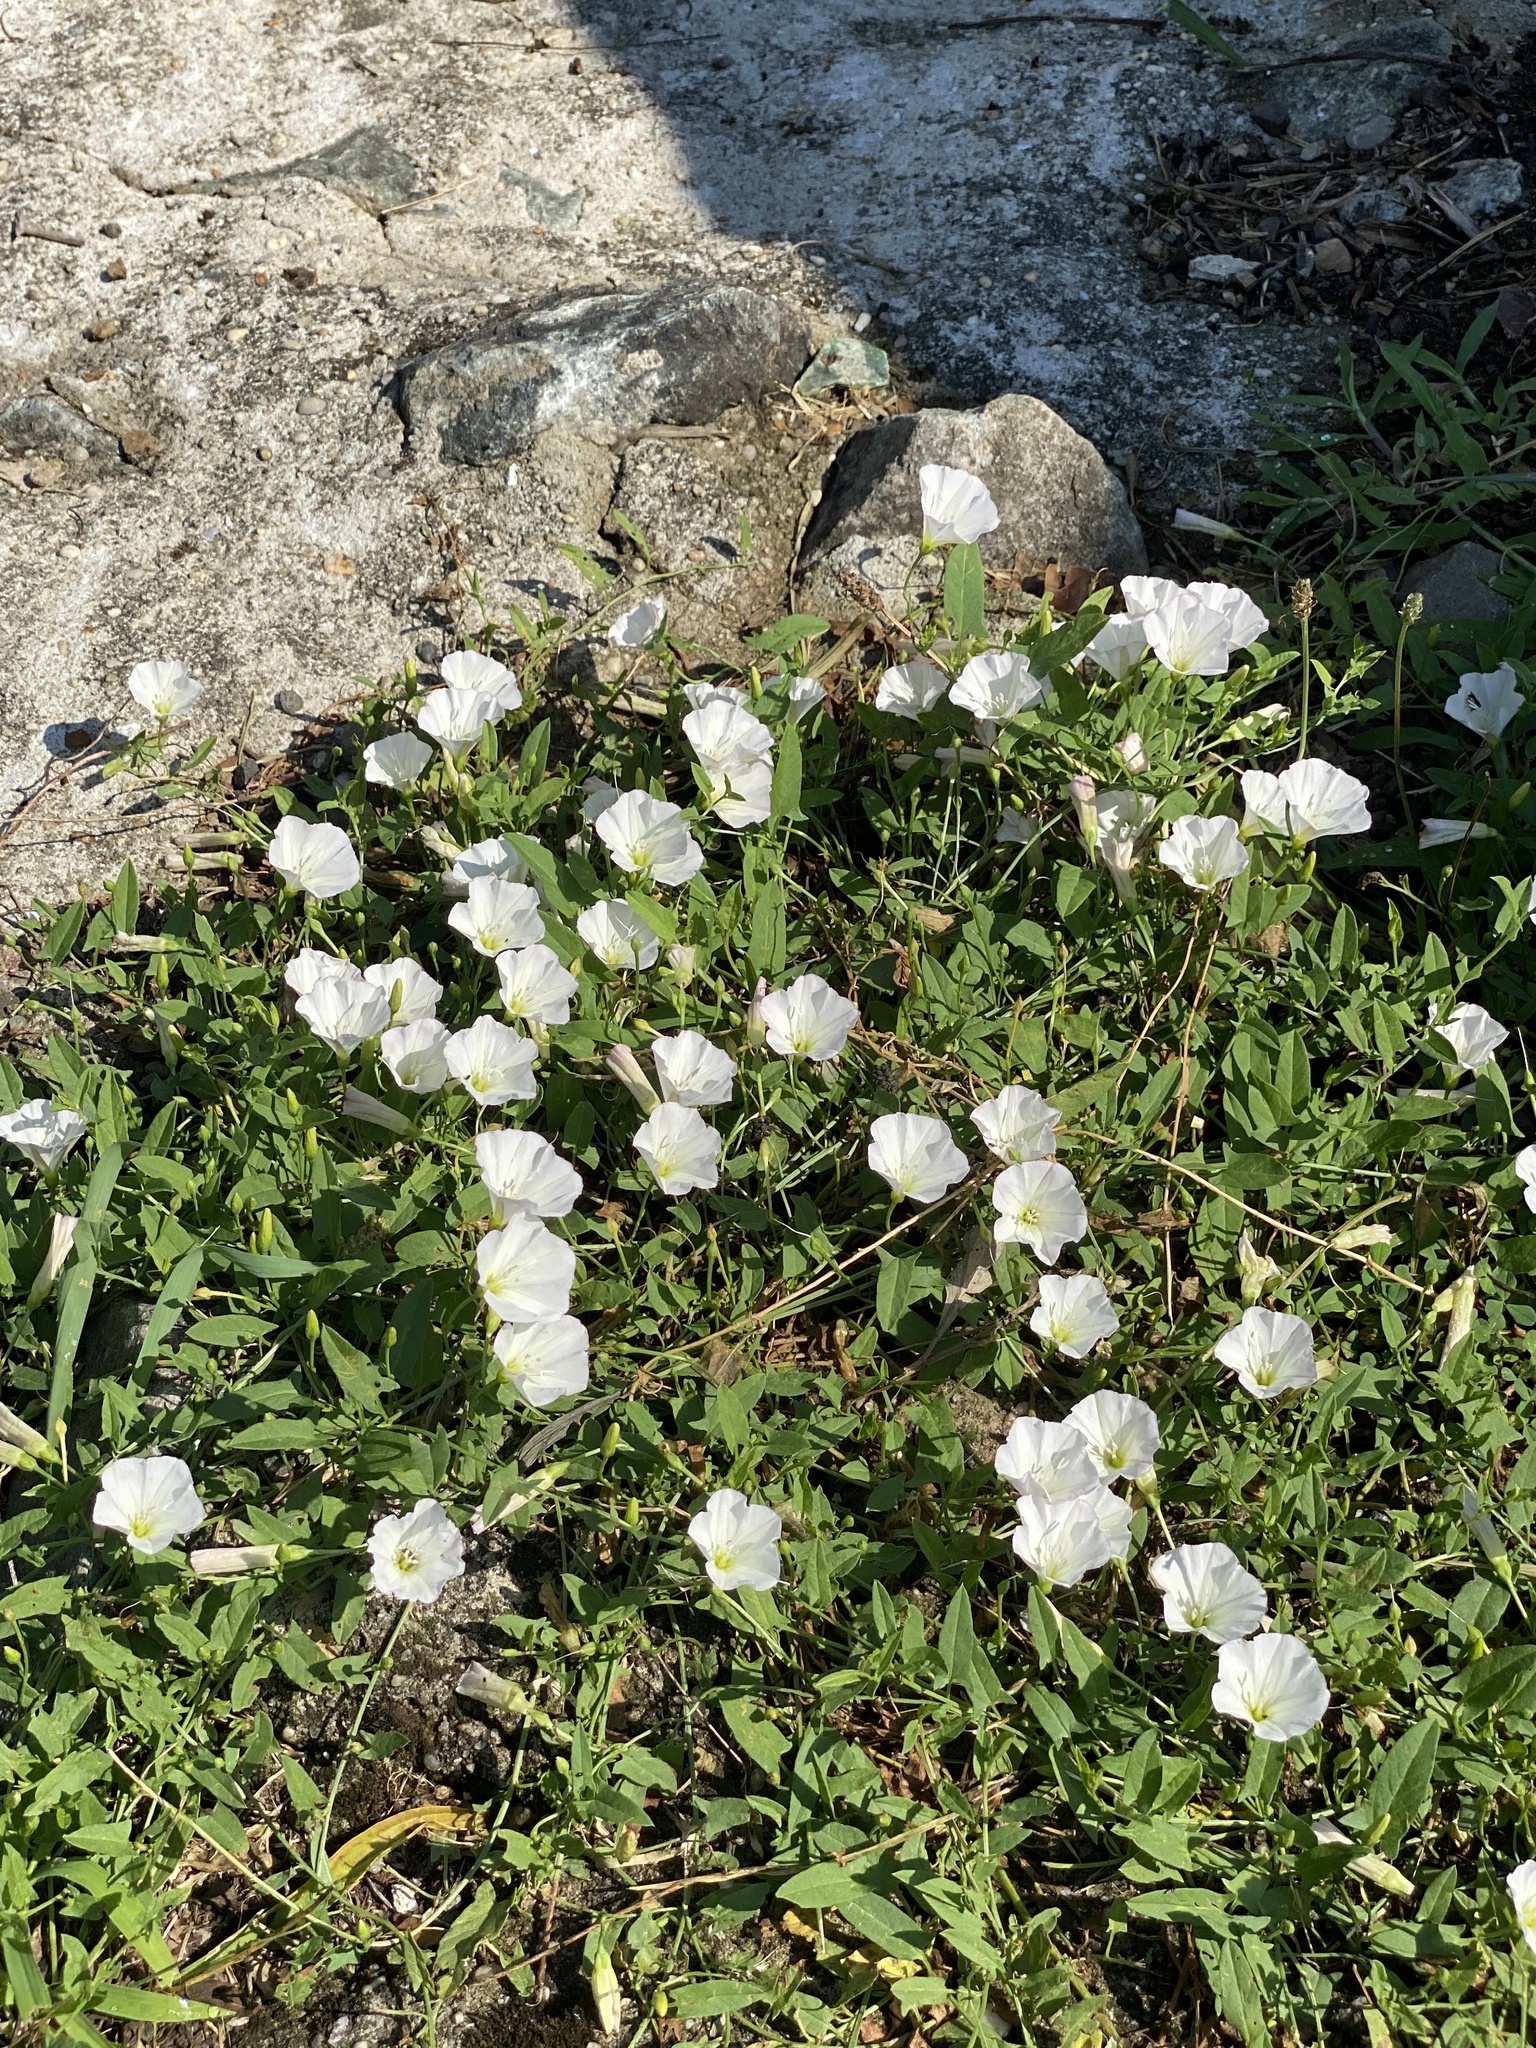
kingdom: Plantae
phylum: Tracheophyta
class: Magnoliopsida
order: Solanales
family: Convolvulaceae
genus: Convolvulus
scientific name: Convolvulus arvensis
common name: Field bindweed
